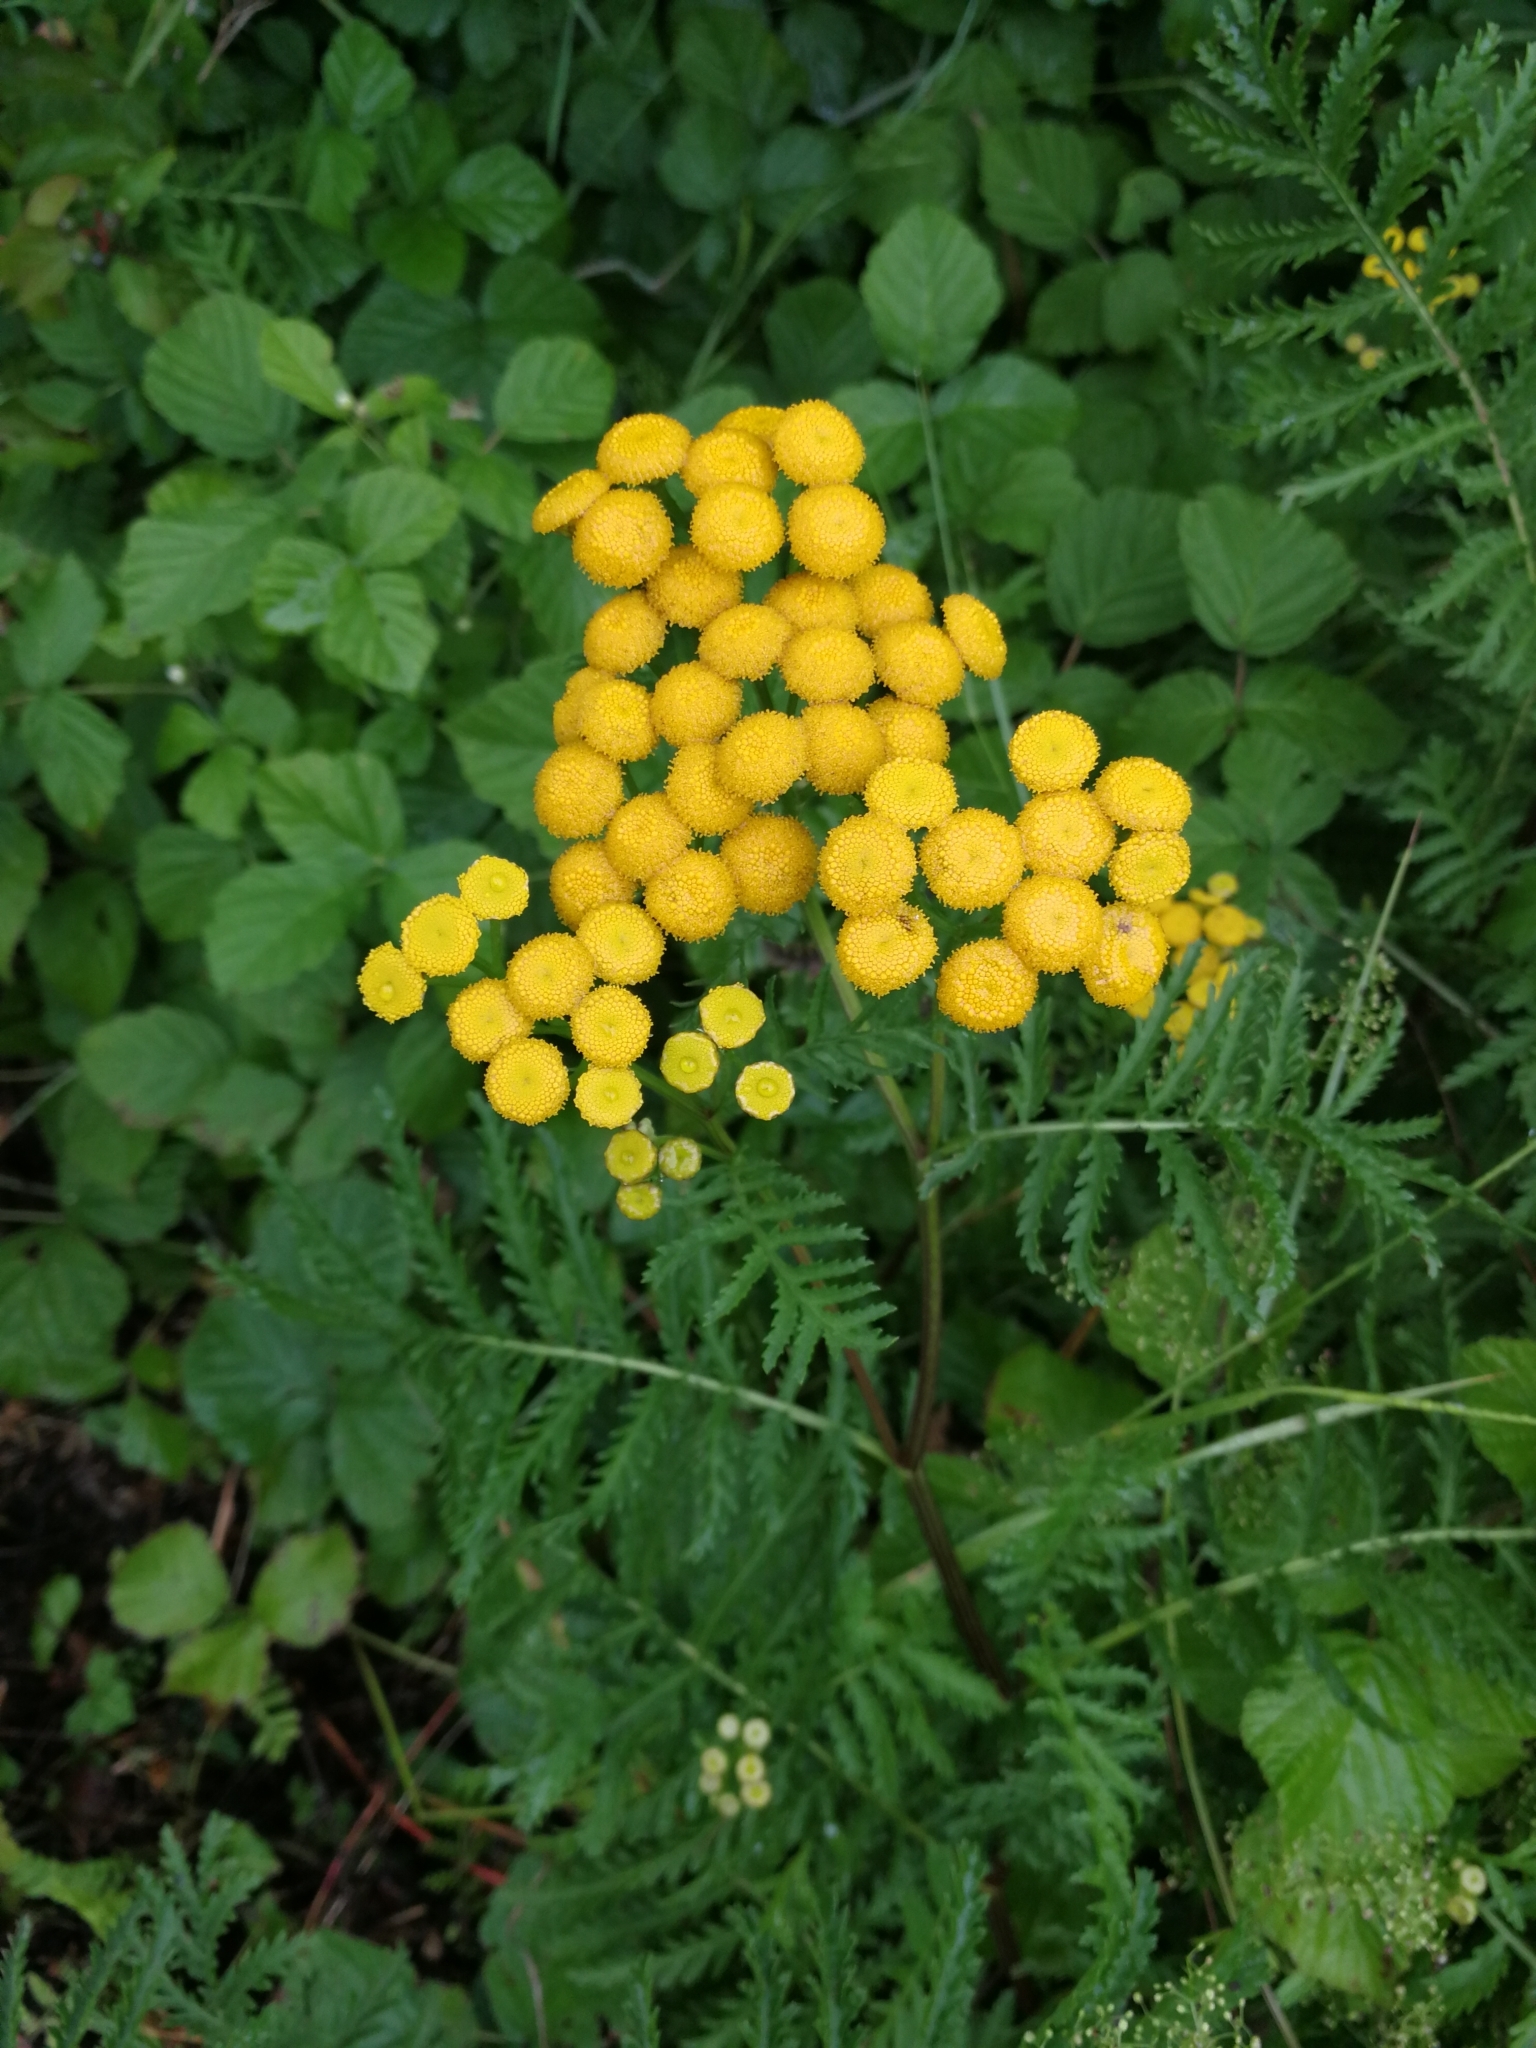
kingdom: Plantae
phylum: Tracheophyta
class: Magnoliopsida
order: Asterales
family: Asteraceae
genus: Tanacetum
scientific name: Tanacetum vulgare
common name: Common tansy
